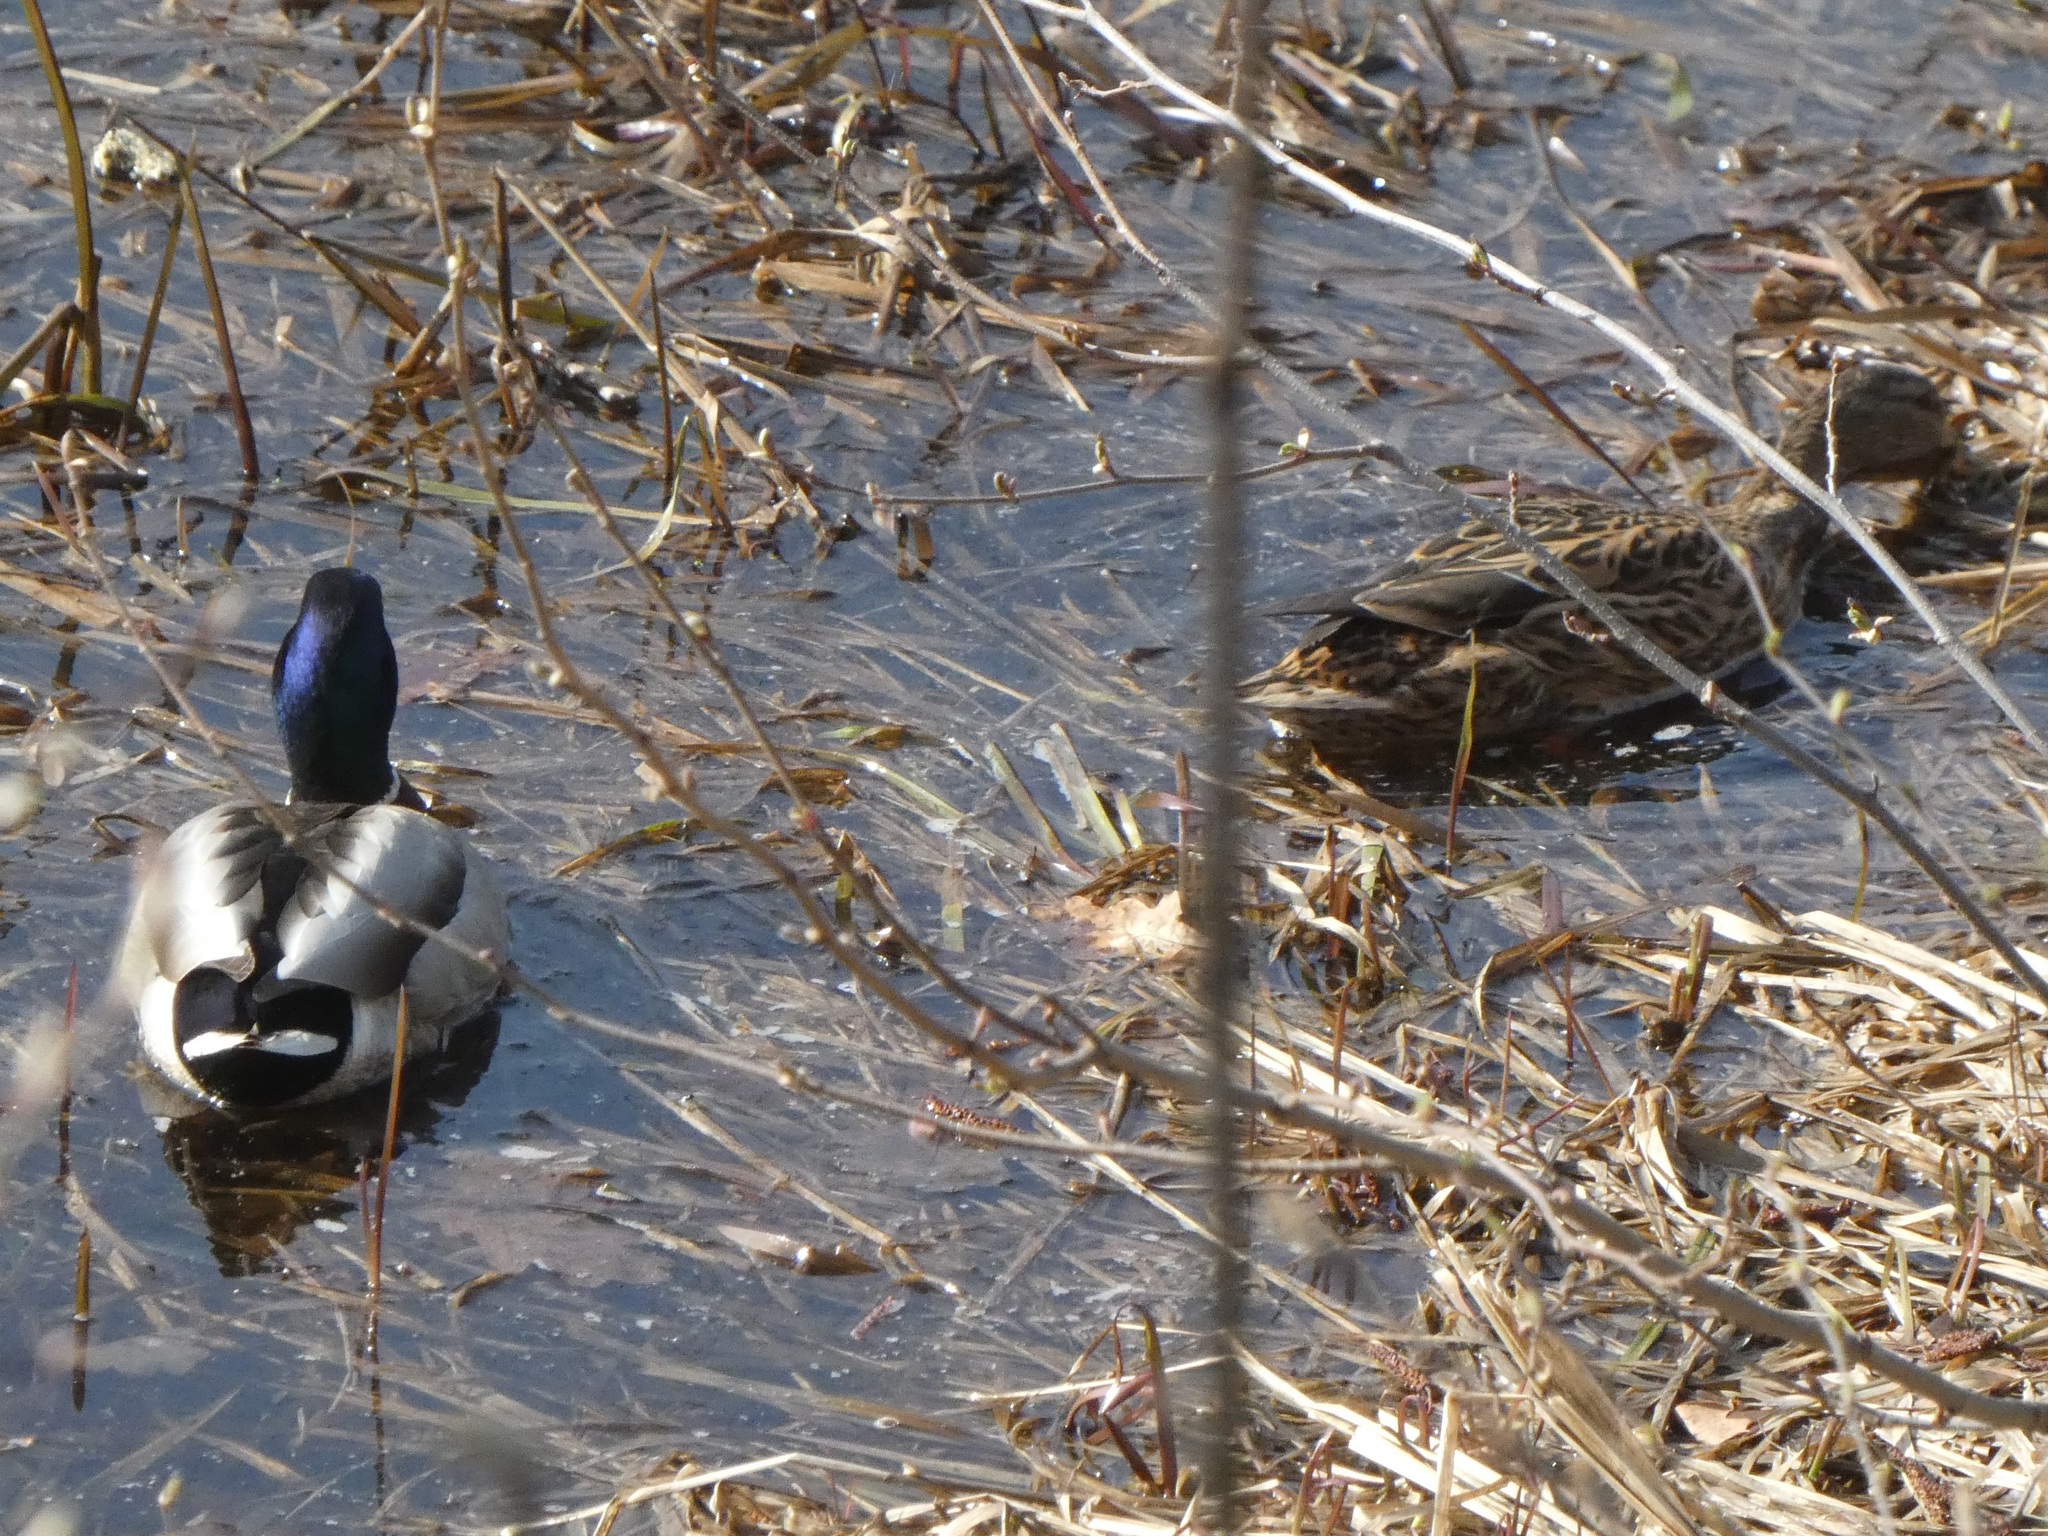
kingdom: Animalia
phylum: Chordata
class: Aves
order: Anseriformes
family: Anatidae
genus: Anas
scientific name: Anas platyrhynchos
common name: Mallard
